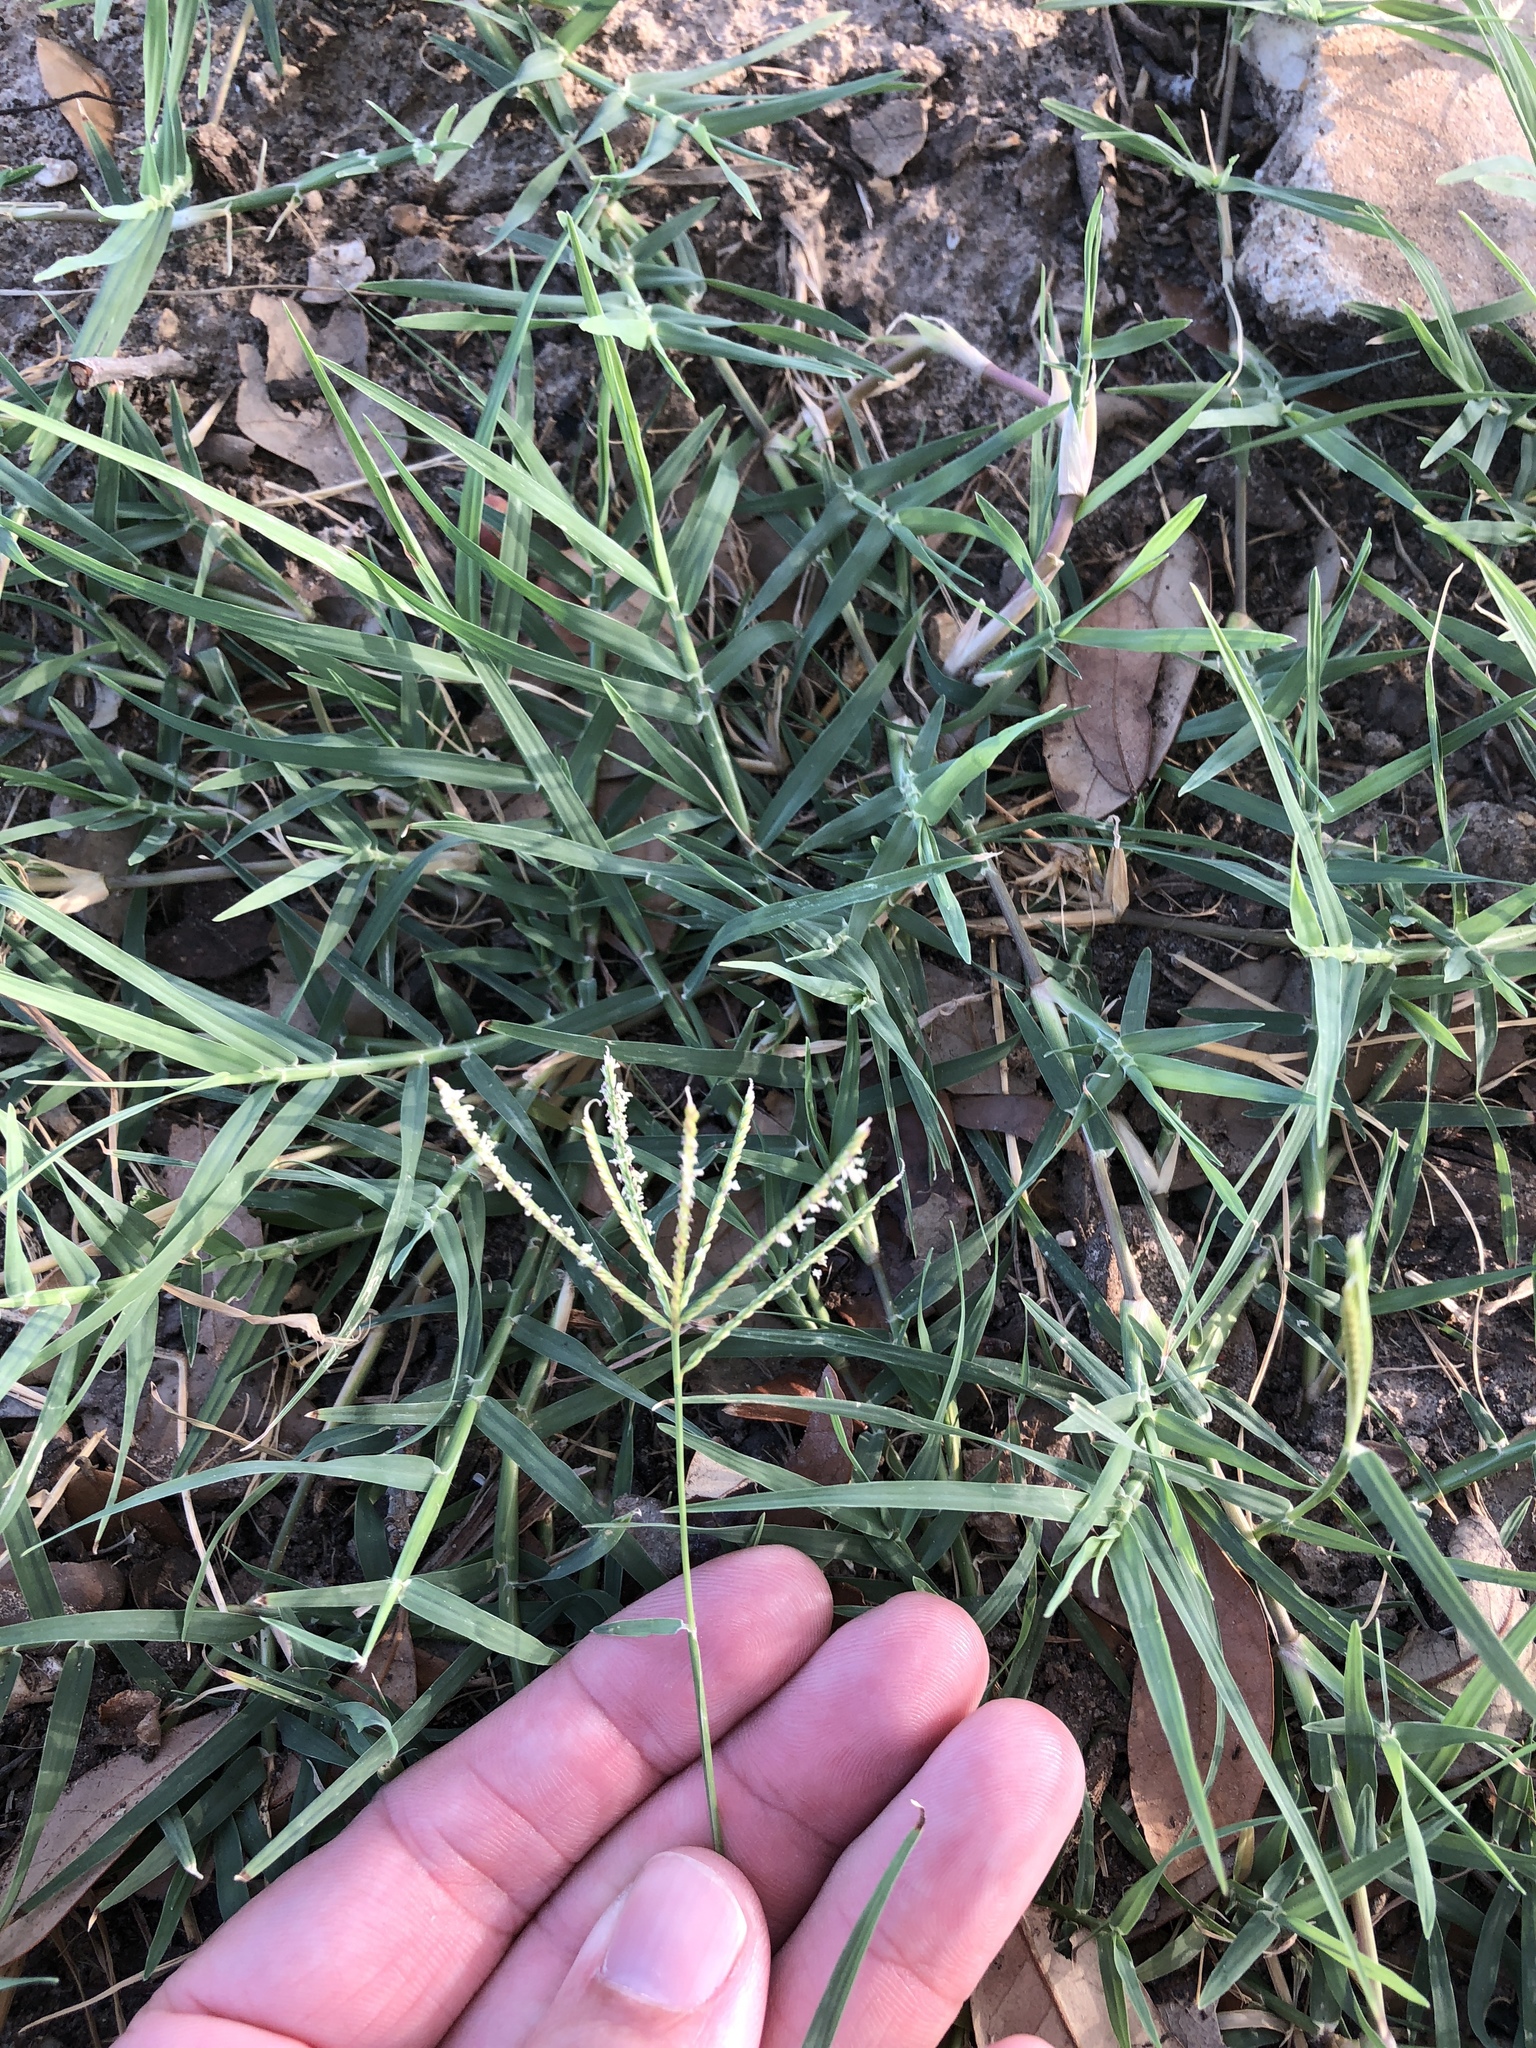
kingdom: Plantae
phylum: Tracheophyta
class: Liliopsida
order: Poales
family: Poaceae
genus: Cynodon
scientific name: Cynodon dactylon
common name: Bermuda grass
